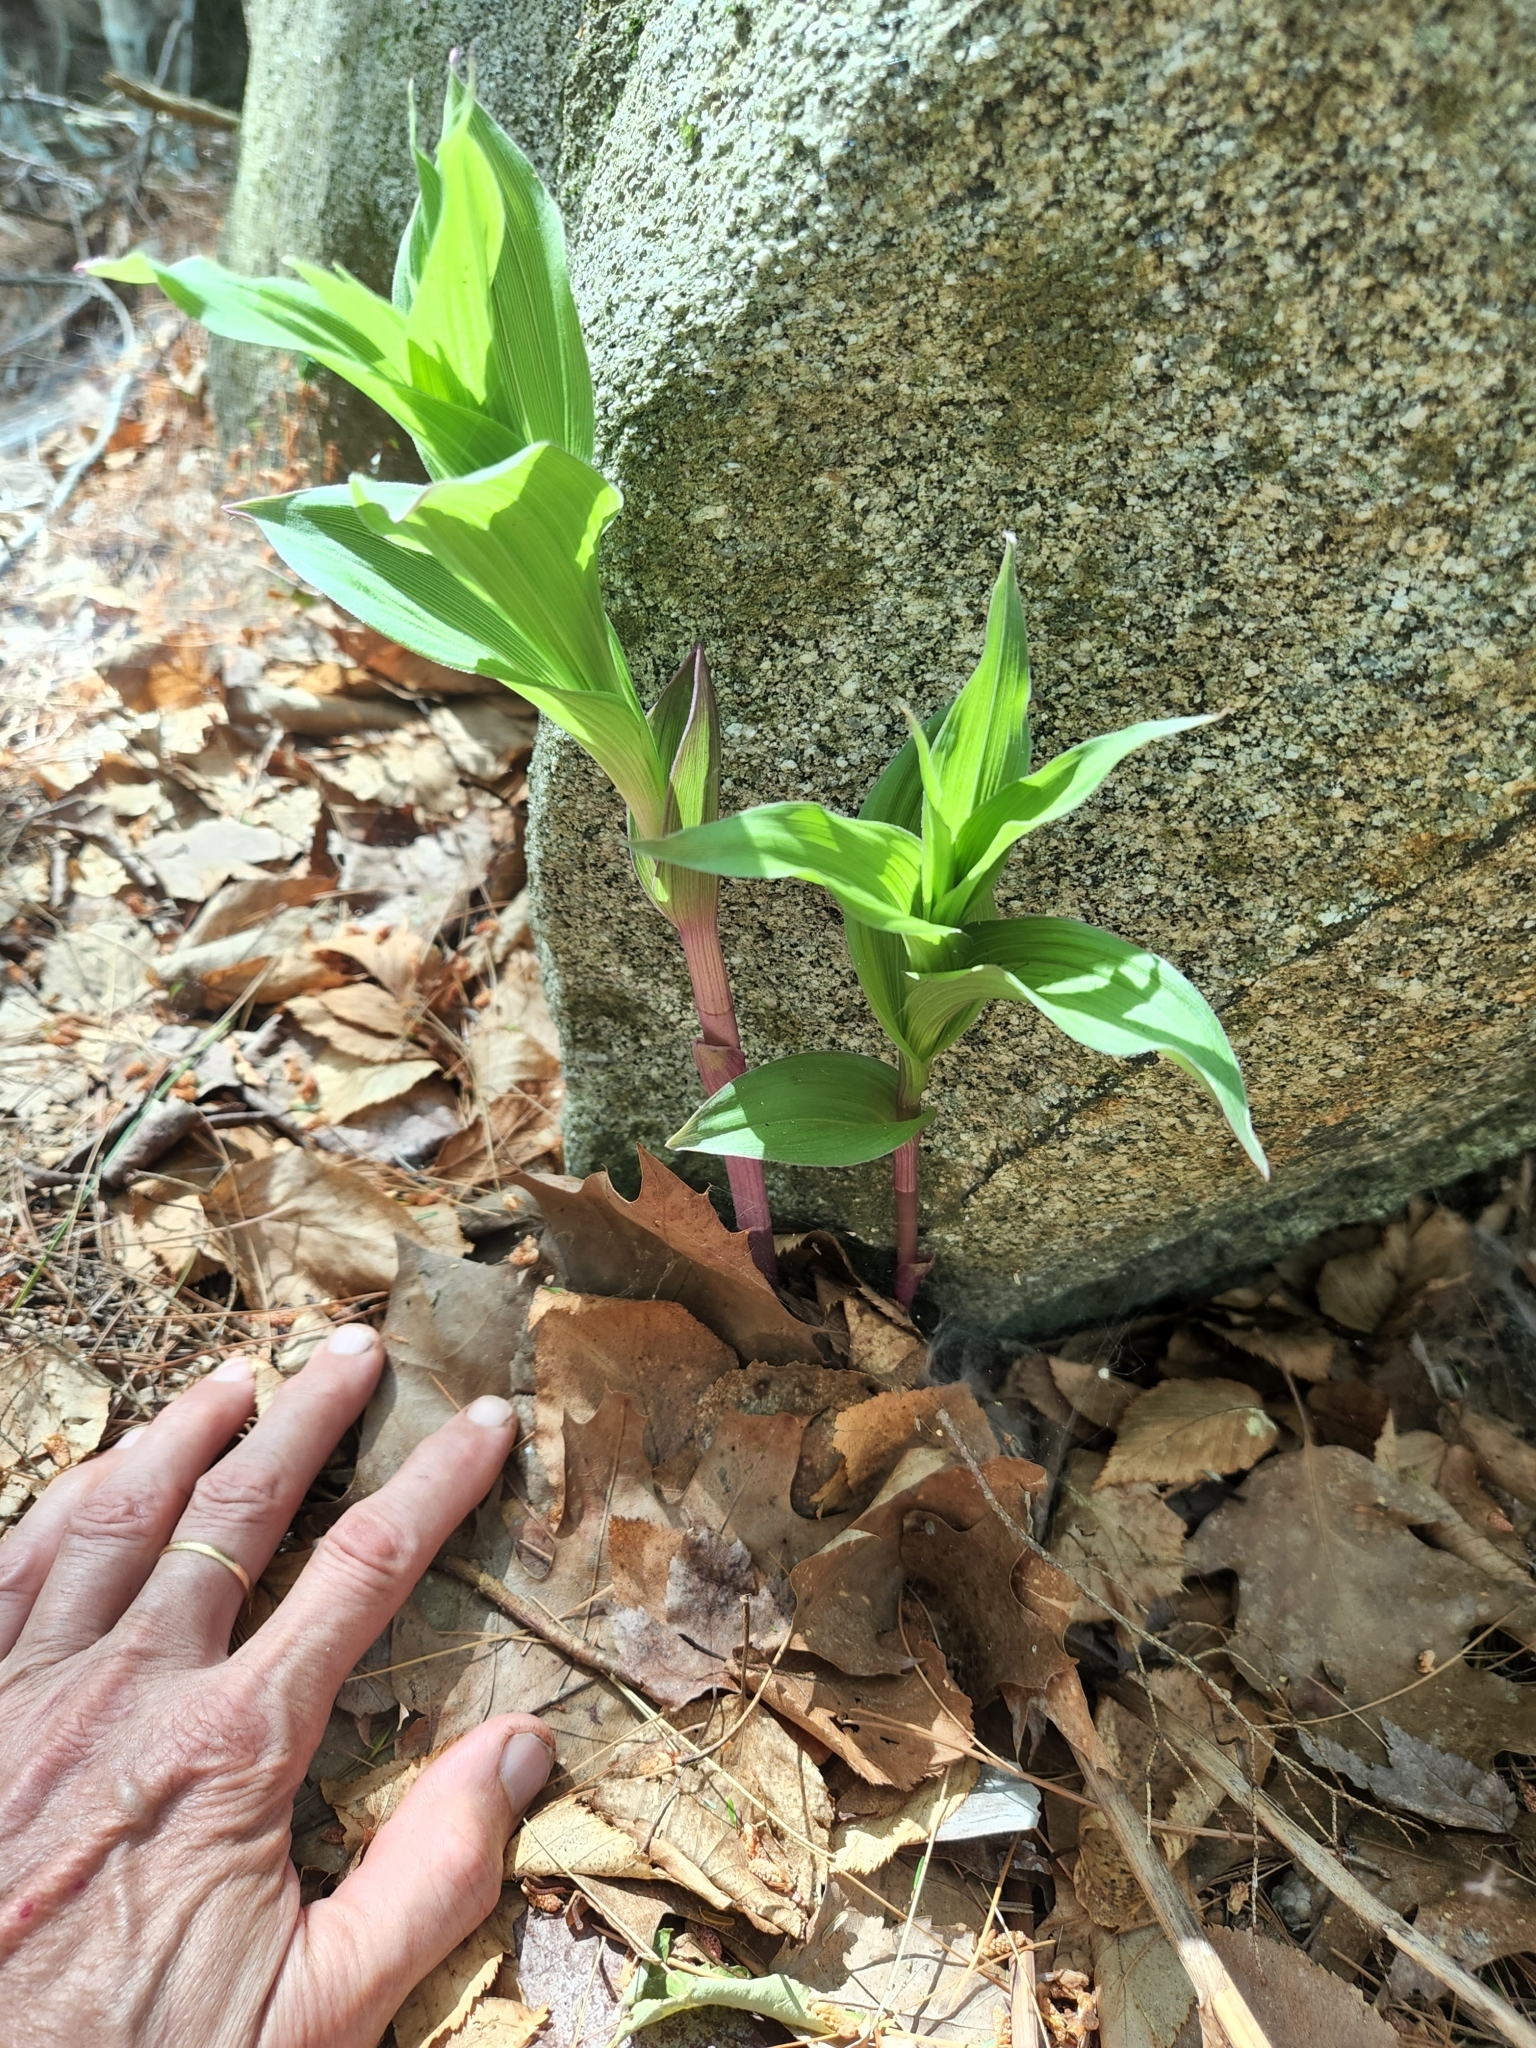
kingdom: Plantae
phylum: Tracheophyta
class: Liliopsida
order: Asparagales
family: Orchidaceae
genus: Epipactis
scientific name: Epipactis helleborine
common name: Broad-leaved helleborine
